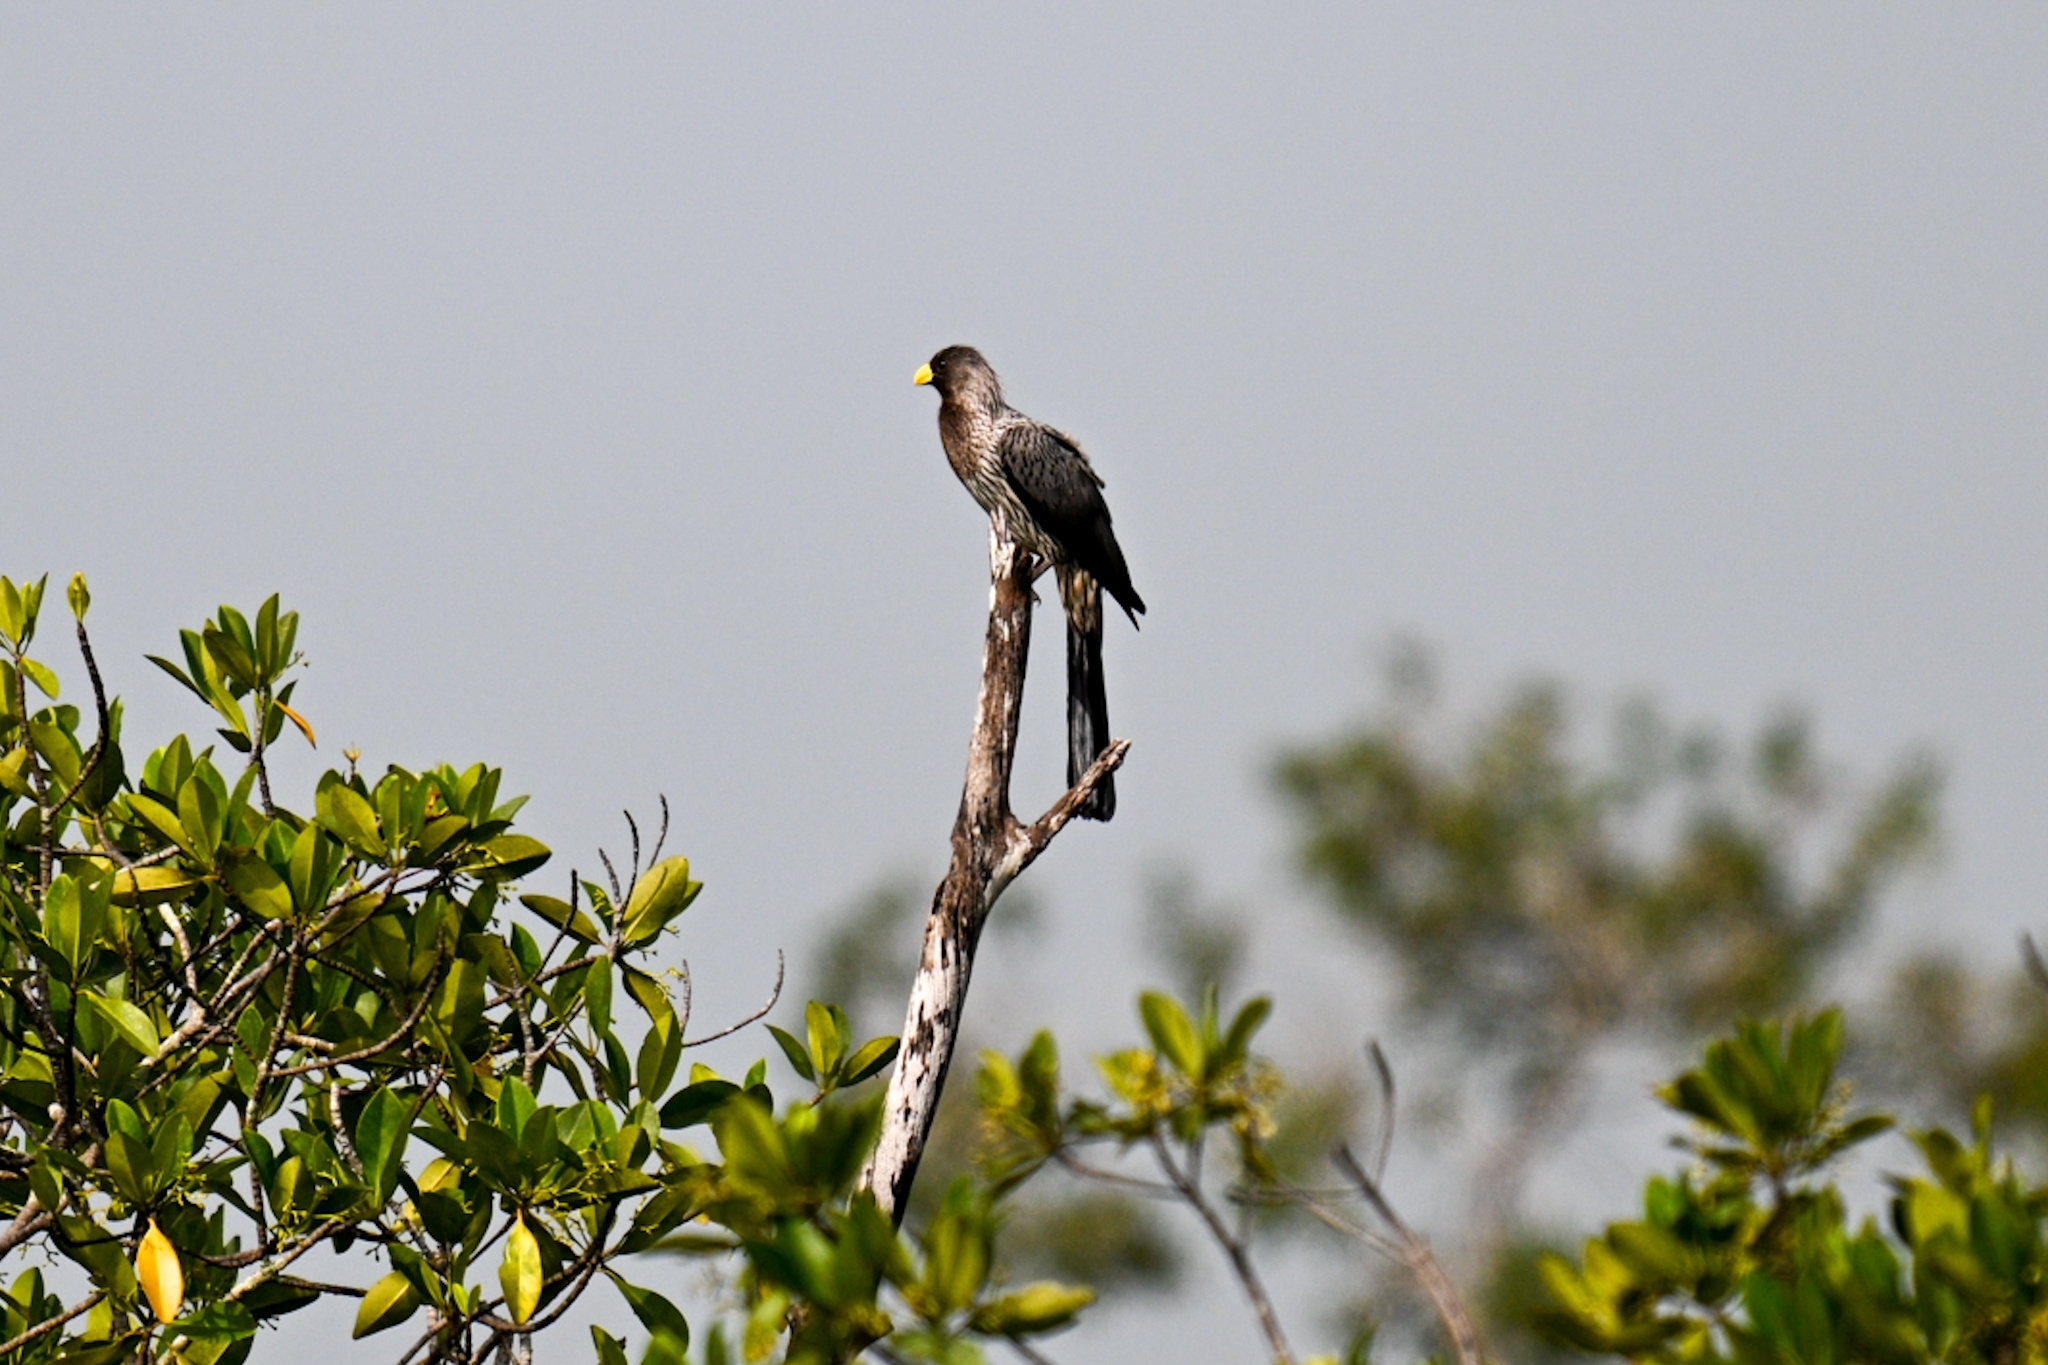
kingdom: Animalia
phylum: Chordata
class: Aves
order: Musophagiformes
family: Musophagidae
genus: Crinifer
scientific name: Crinifer piscator
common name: Western plantain-eater
